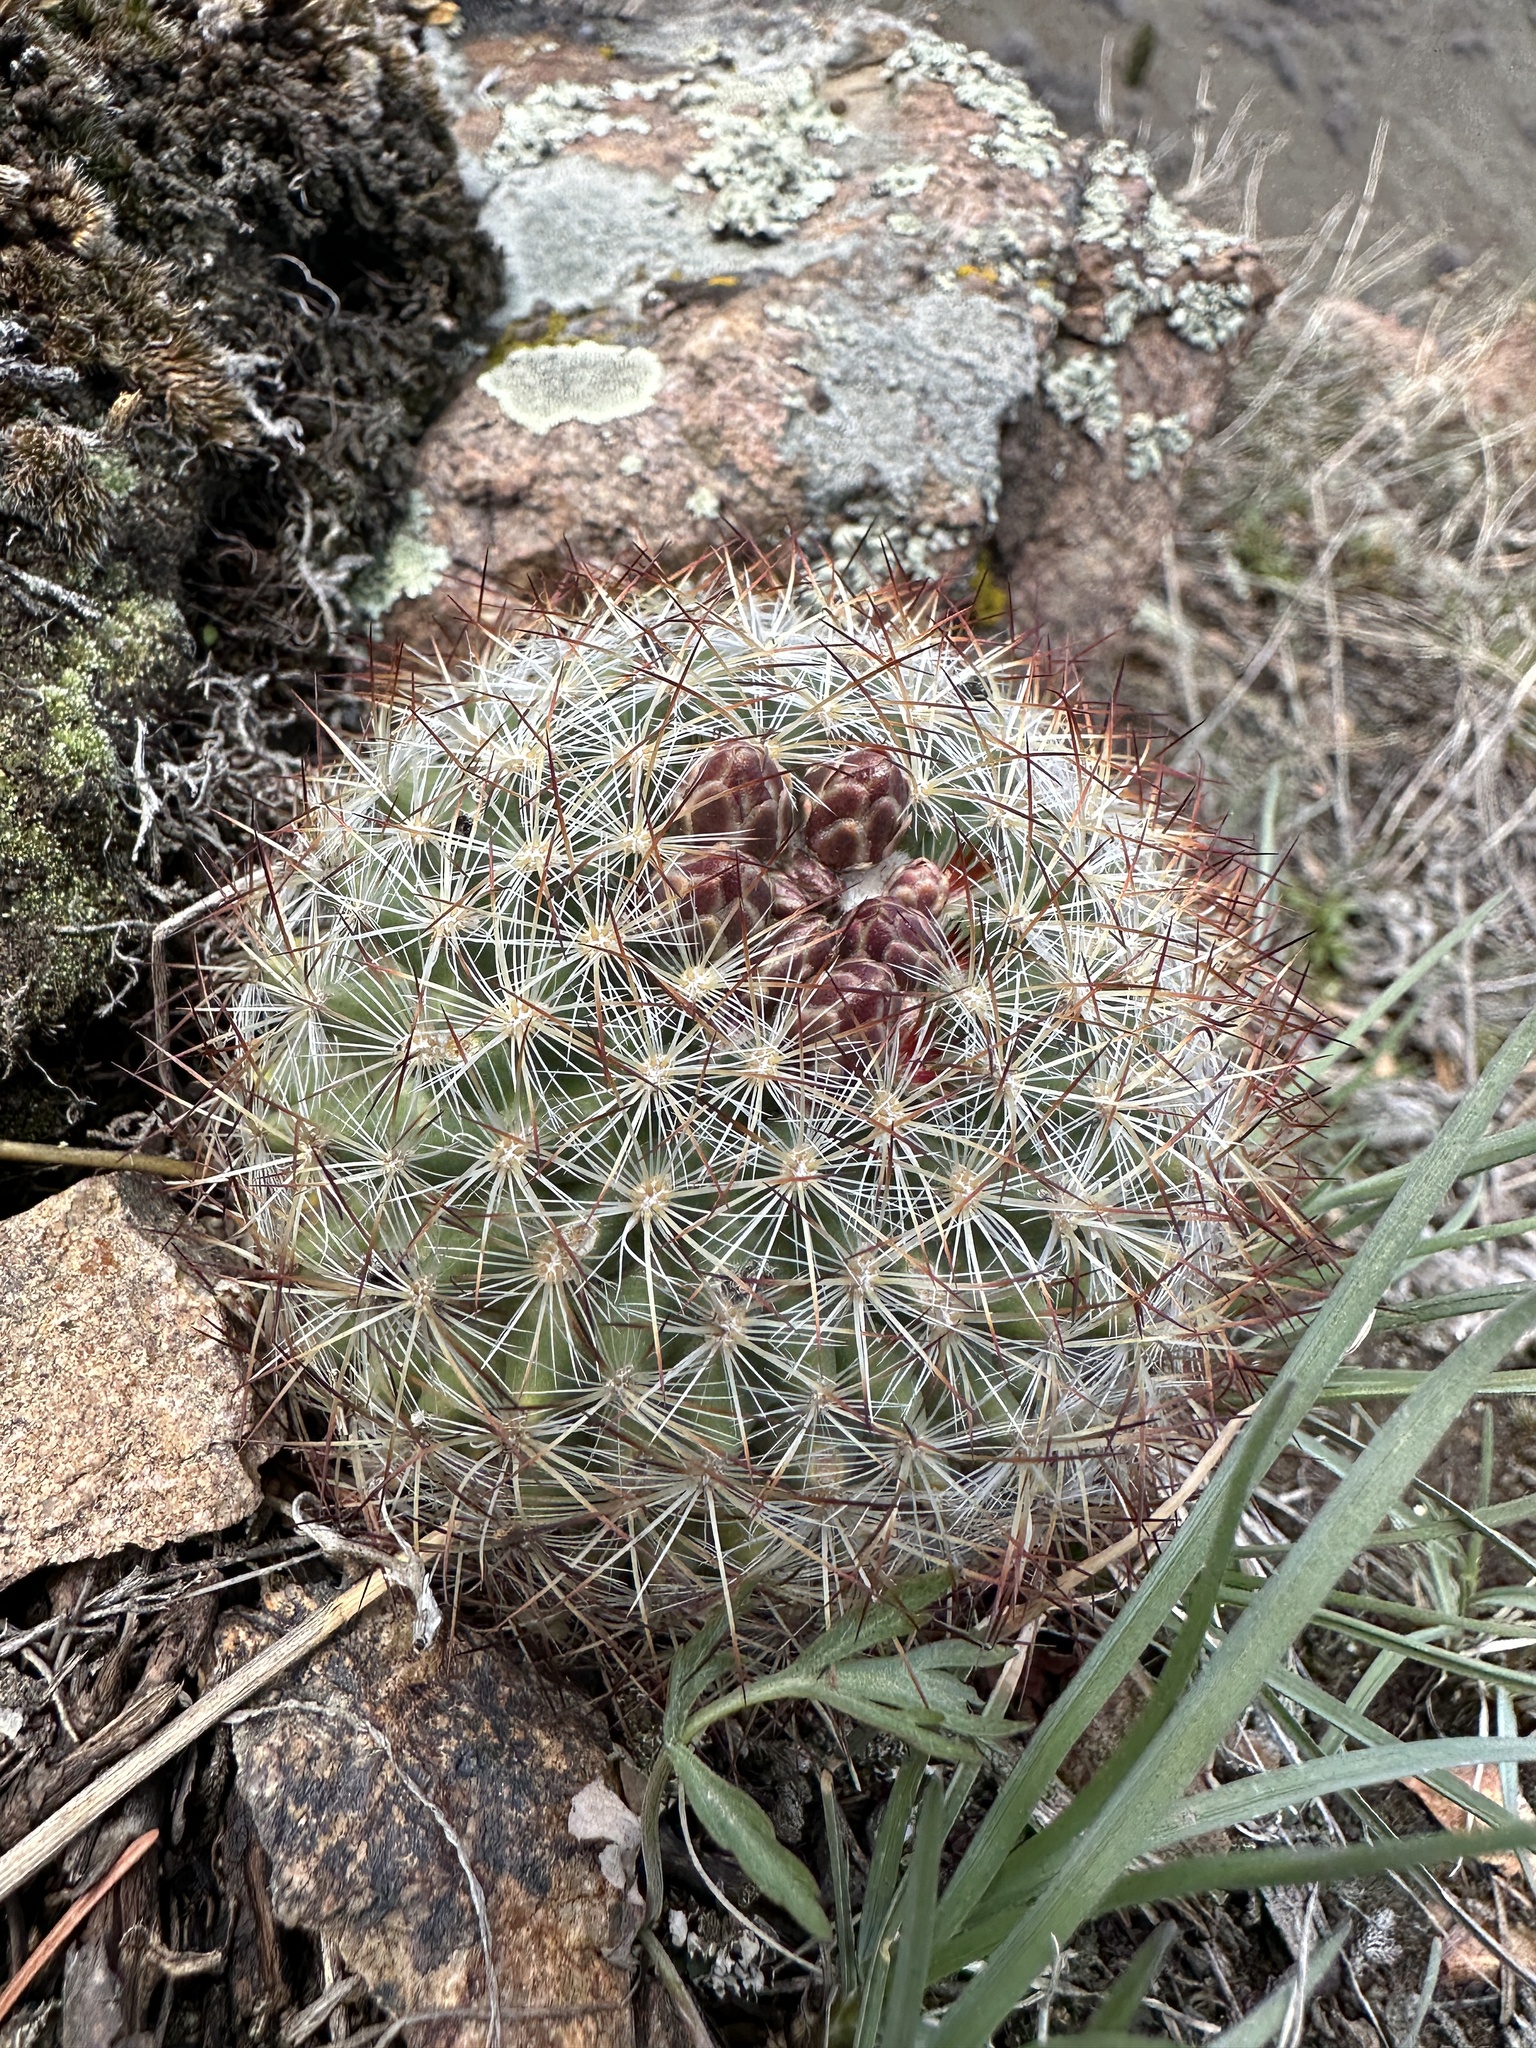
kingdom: Plantae
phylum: Tracheophyta
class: Magnoliopsida
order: Caryophyllales
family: Cactaceae
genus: Pediocactus
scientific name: Pediocactus simpsonii
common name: Simpson's hedgehog cactus
